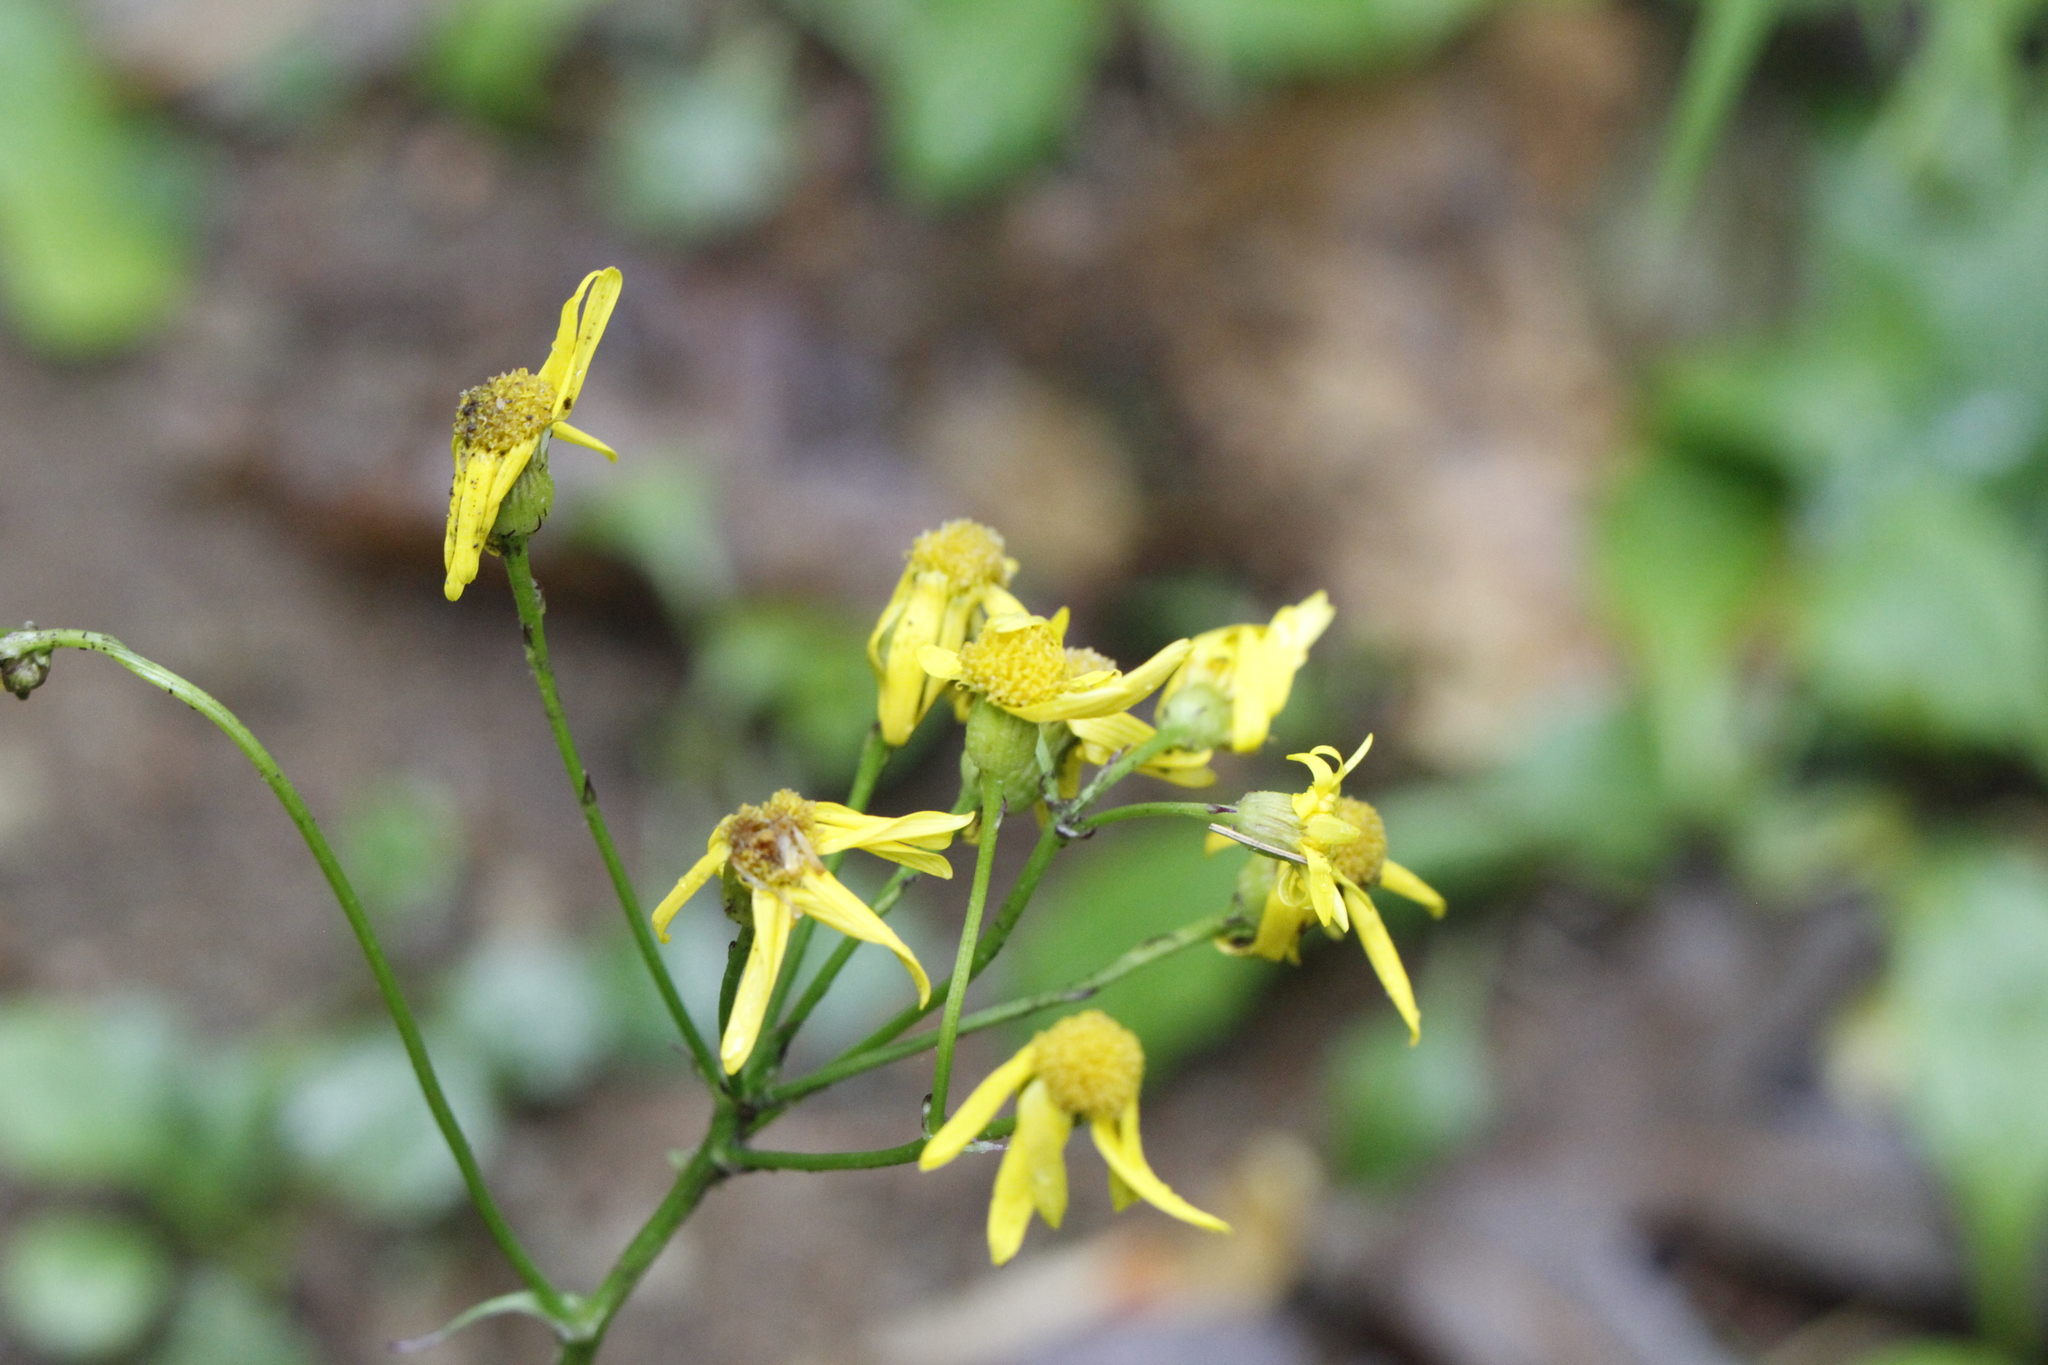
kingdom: Plantae
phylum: Tracheophyta
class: Magnoliopsida
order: Asterales
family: Asteraceae
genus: Packera
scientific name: Packera obovata
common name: Round-leaf ragwort
